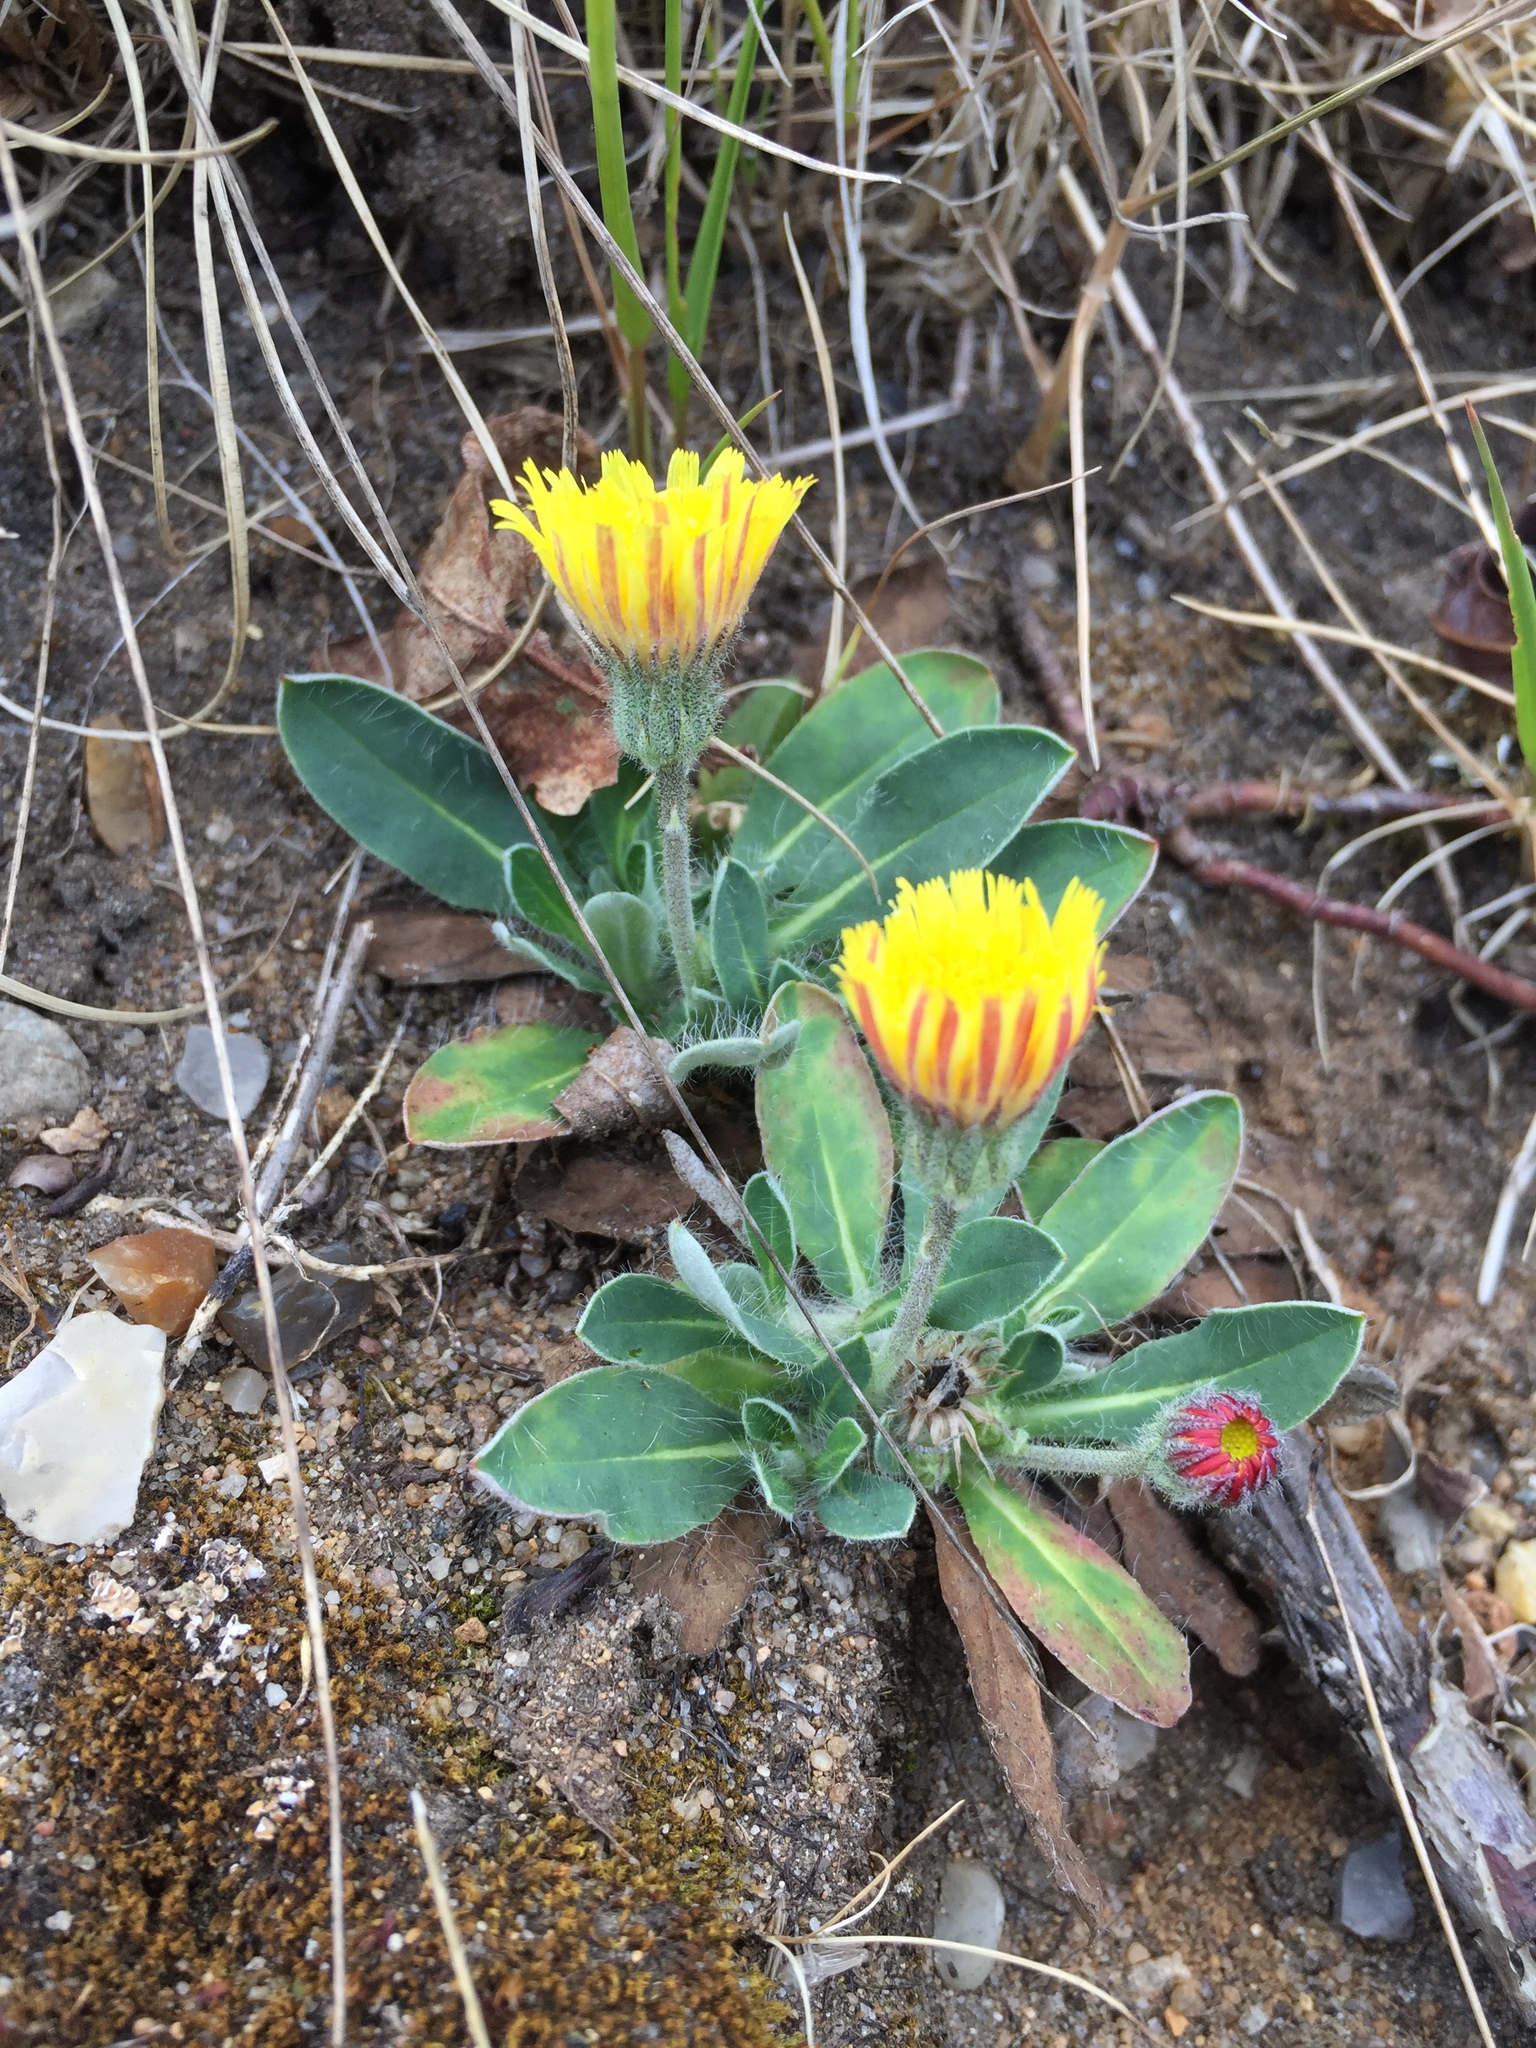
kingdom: Plantae
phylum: Tracheophyta
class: Magnoliopsida
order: Asterales
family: Asteraceae
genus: Pilosella
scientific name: Pilosella officinarum
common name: Mouse-ear hawkweed
